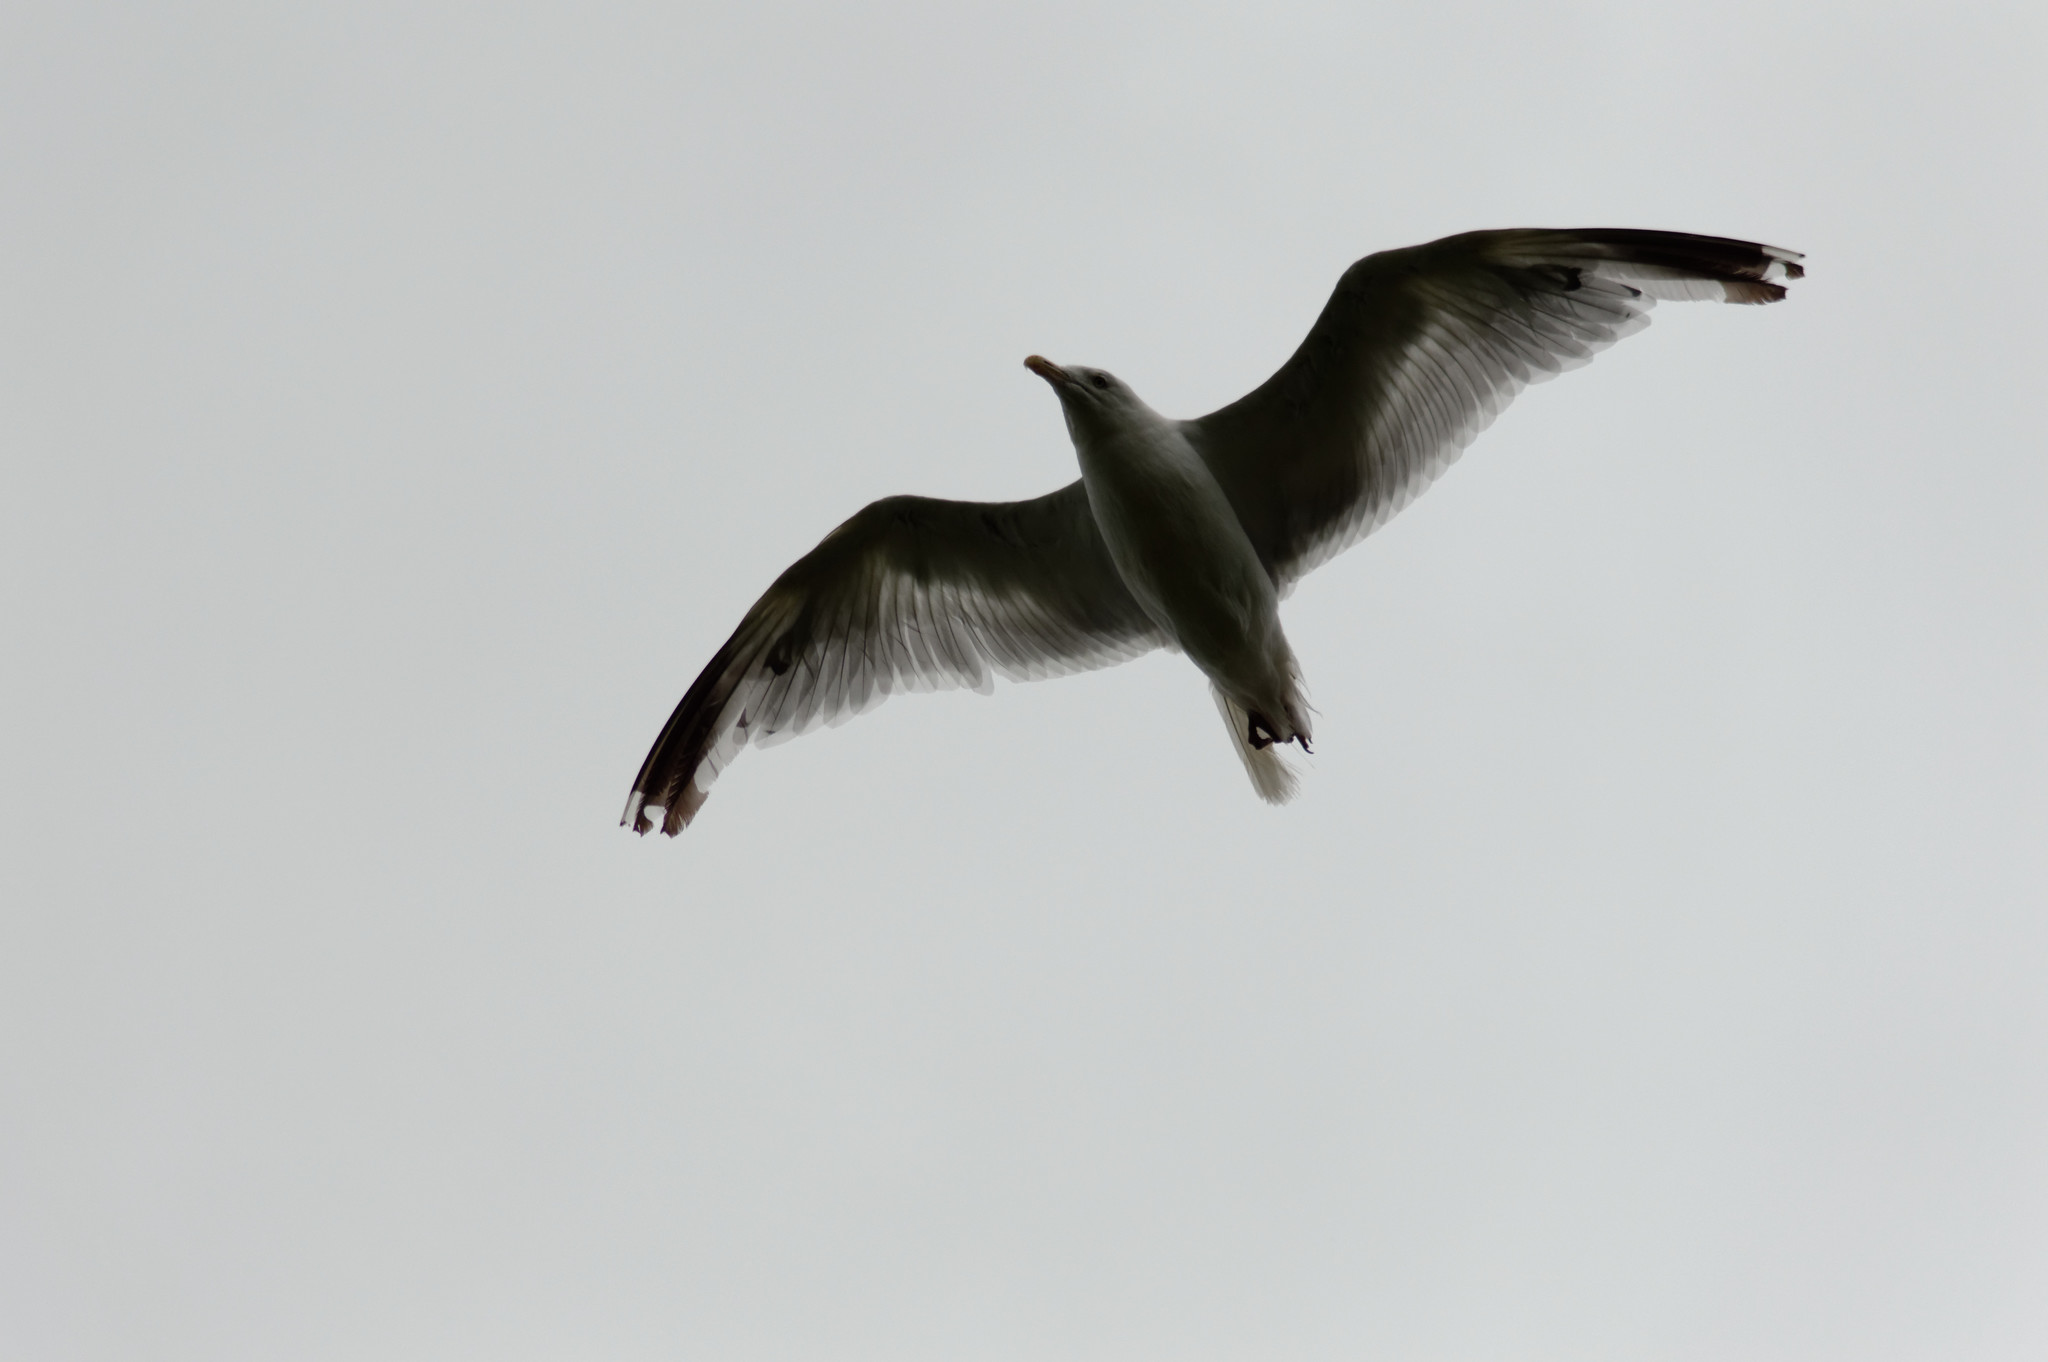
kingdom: Animalia
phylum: Chordata
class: Aves
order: Charadriiformes
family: Laridae
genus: Larus
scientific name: Larus argentatus
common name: Herring gull
